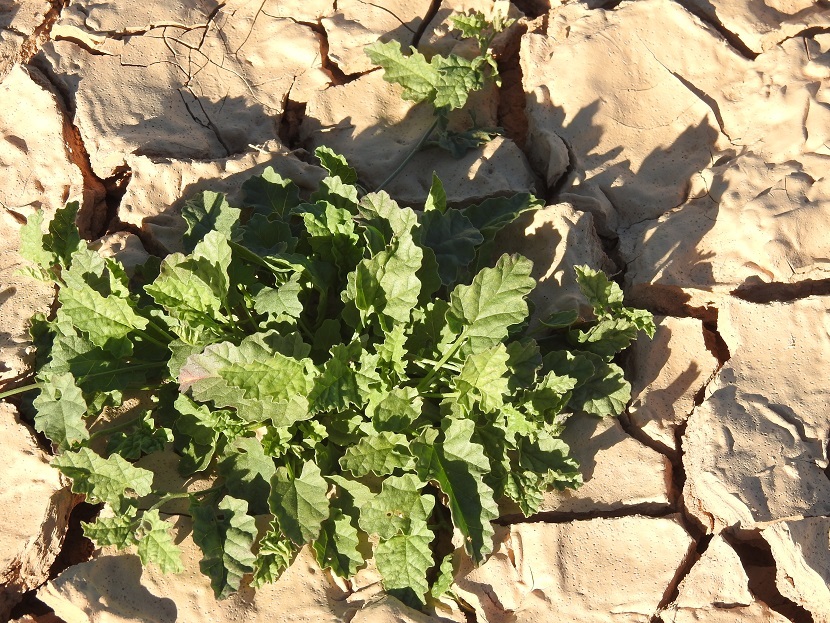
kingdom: Plantae
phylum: Tracheophyta
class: Magnoliopsida
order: Solanales
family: Convolvulaceae
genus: Convolvulus
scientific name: Convolvulus fatmensis
